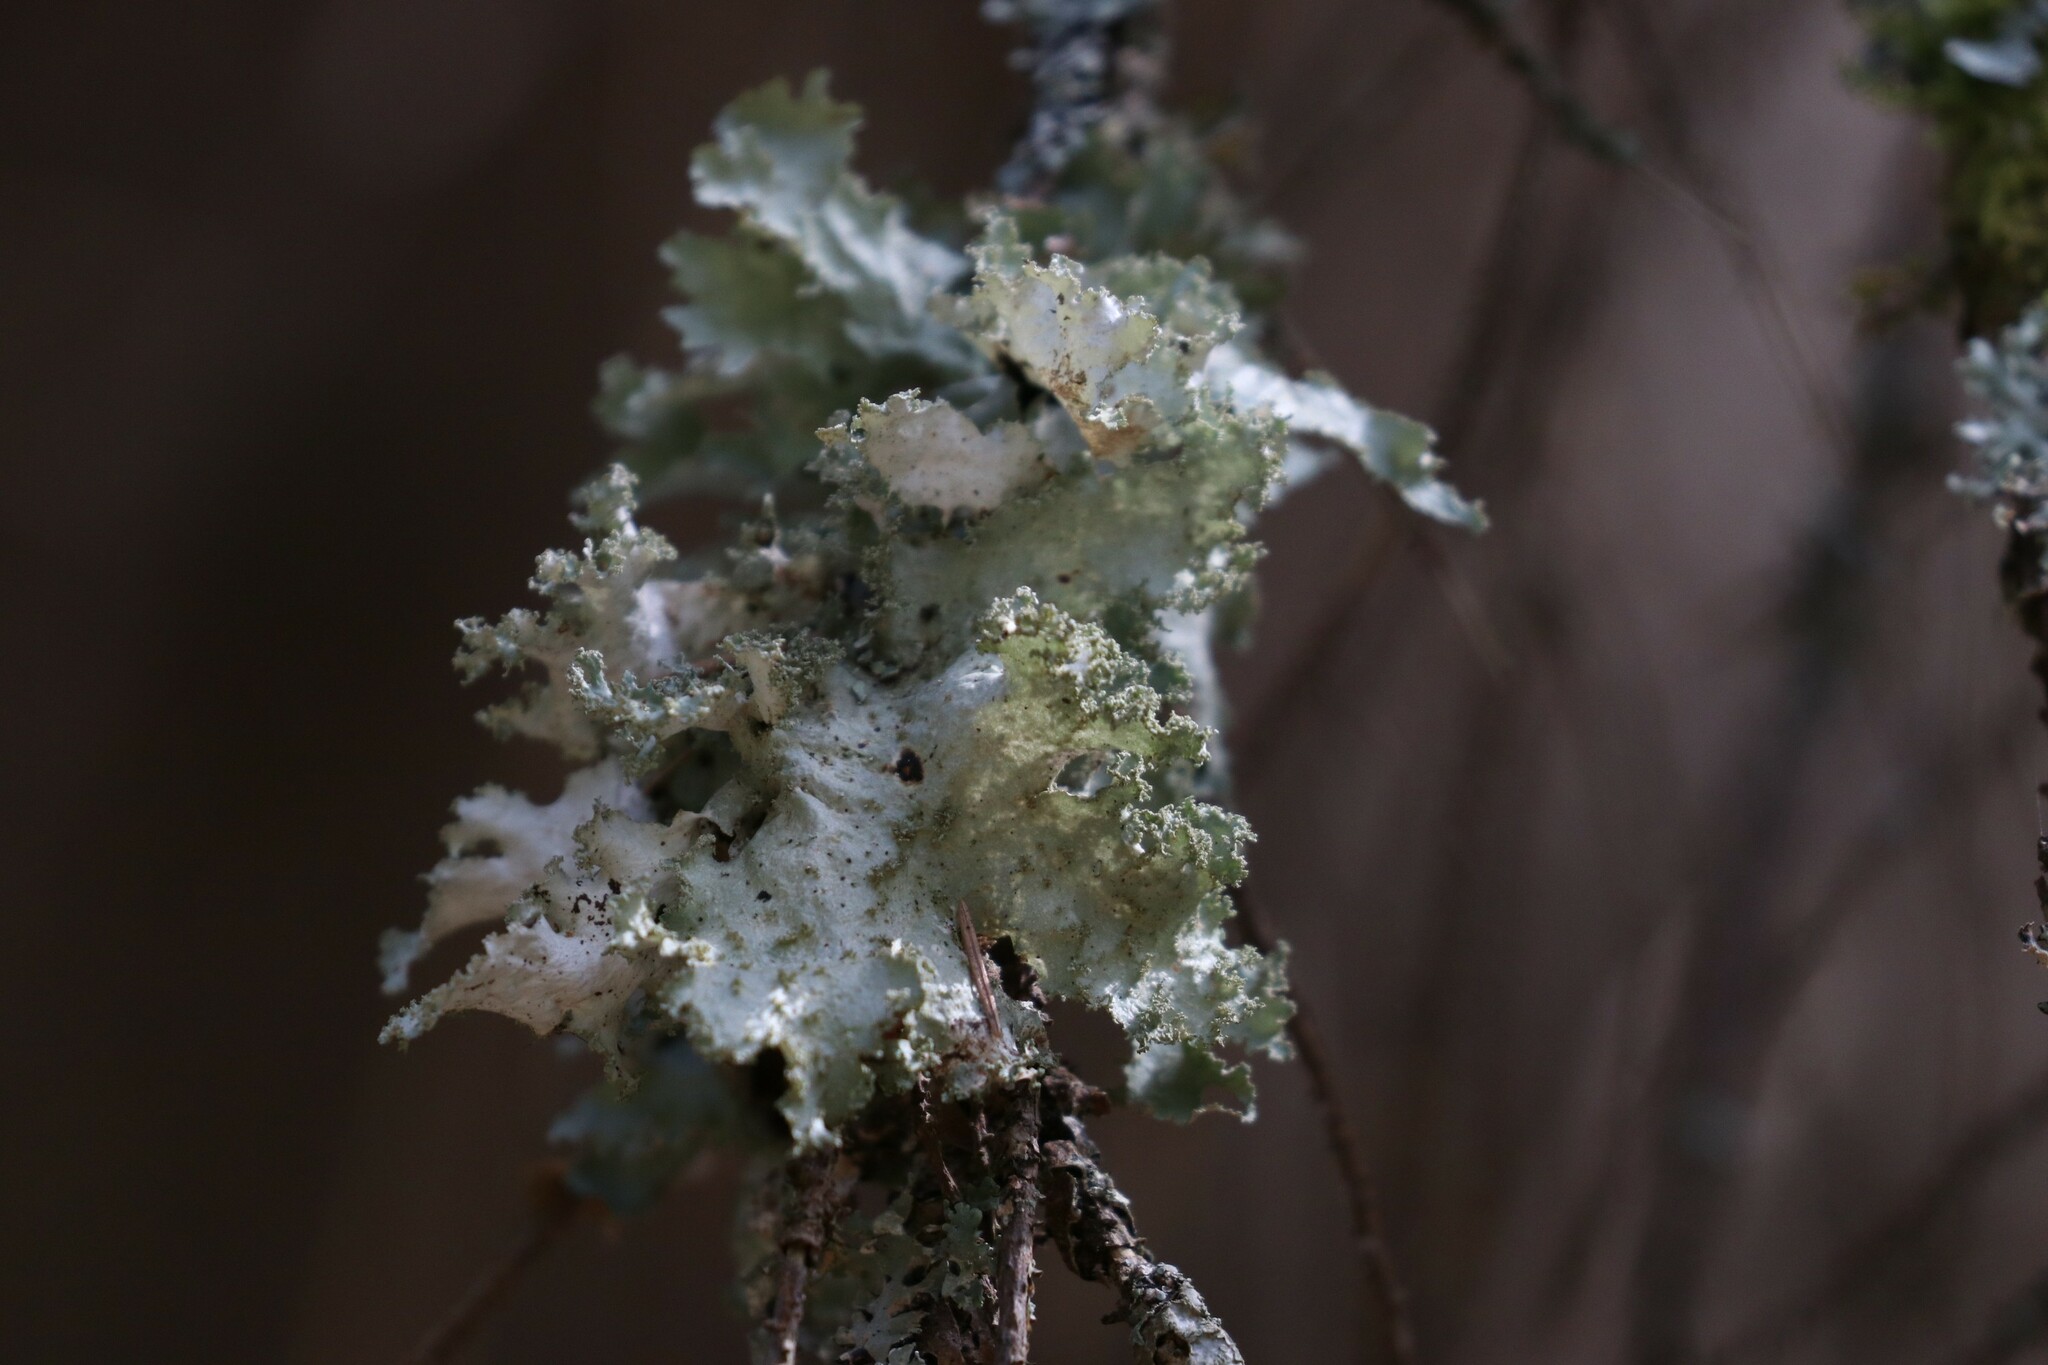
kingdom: Fungi
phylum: Ascomycota
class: Lecanoromycetes
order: Lecanorales
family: Parmeliaceae
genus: Platismatia
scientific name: Platismatia glauca
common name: Varied rag lichen
